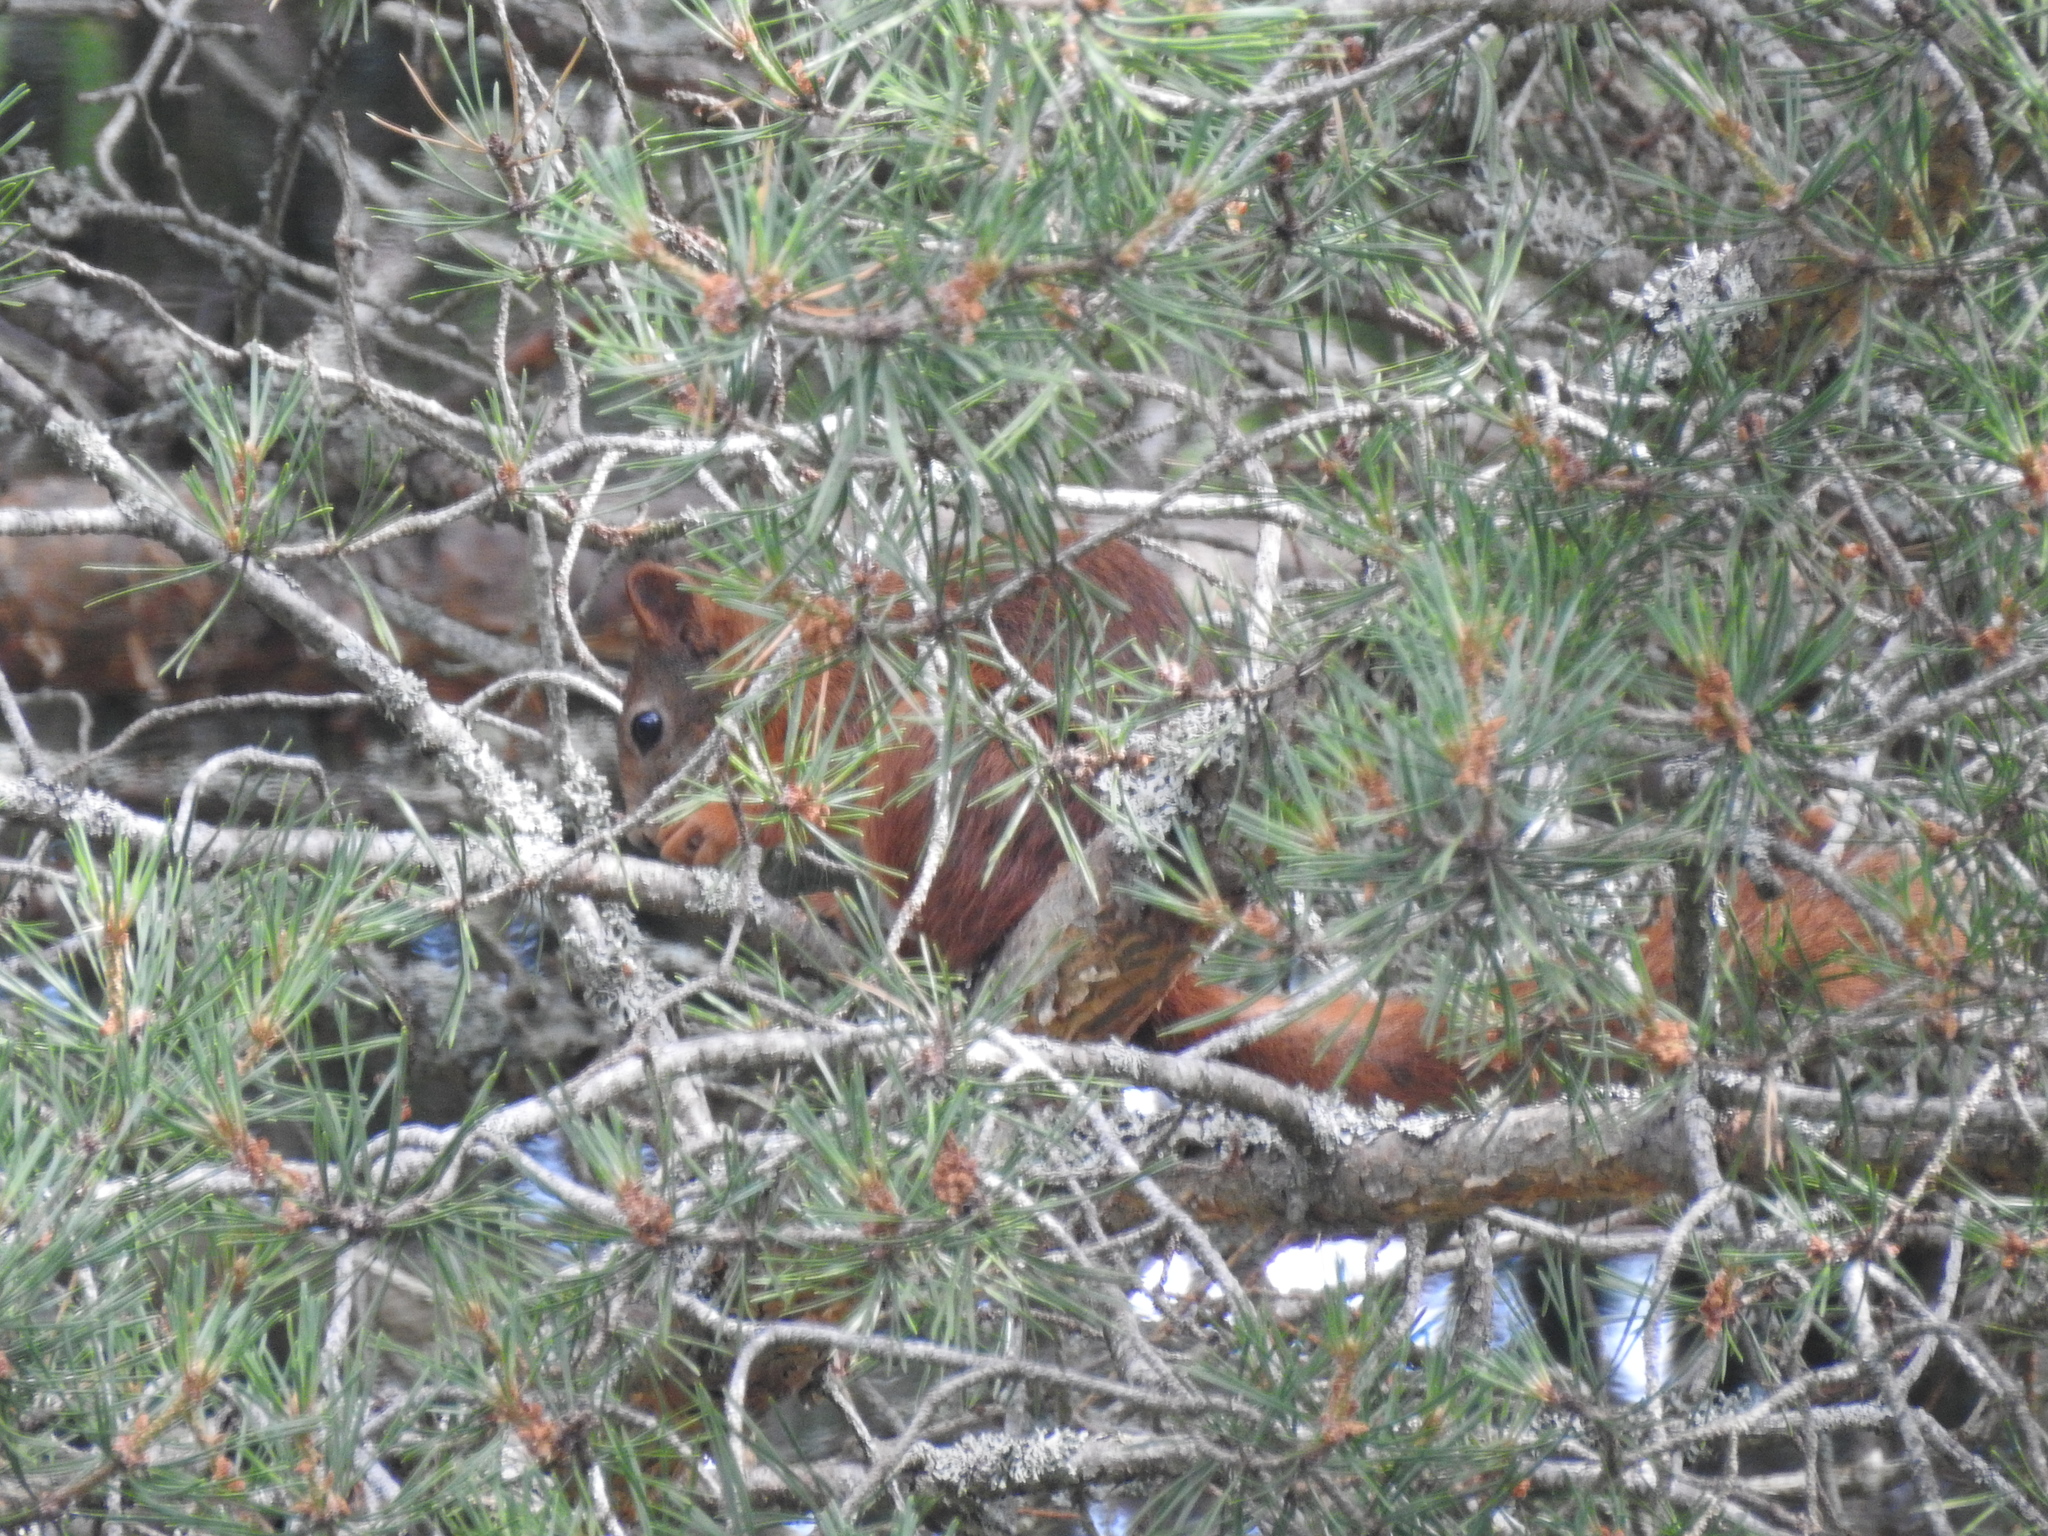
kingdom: Animalia
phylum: Chordata
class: Mammalia
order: Rodentia
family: Sciuridae
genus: Sciurus
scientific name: Sciurus vulgaris
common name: Eurasian red squirrel
